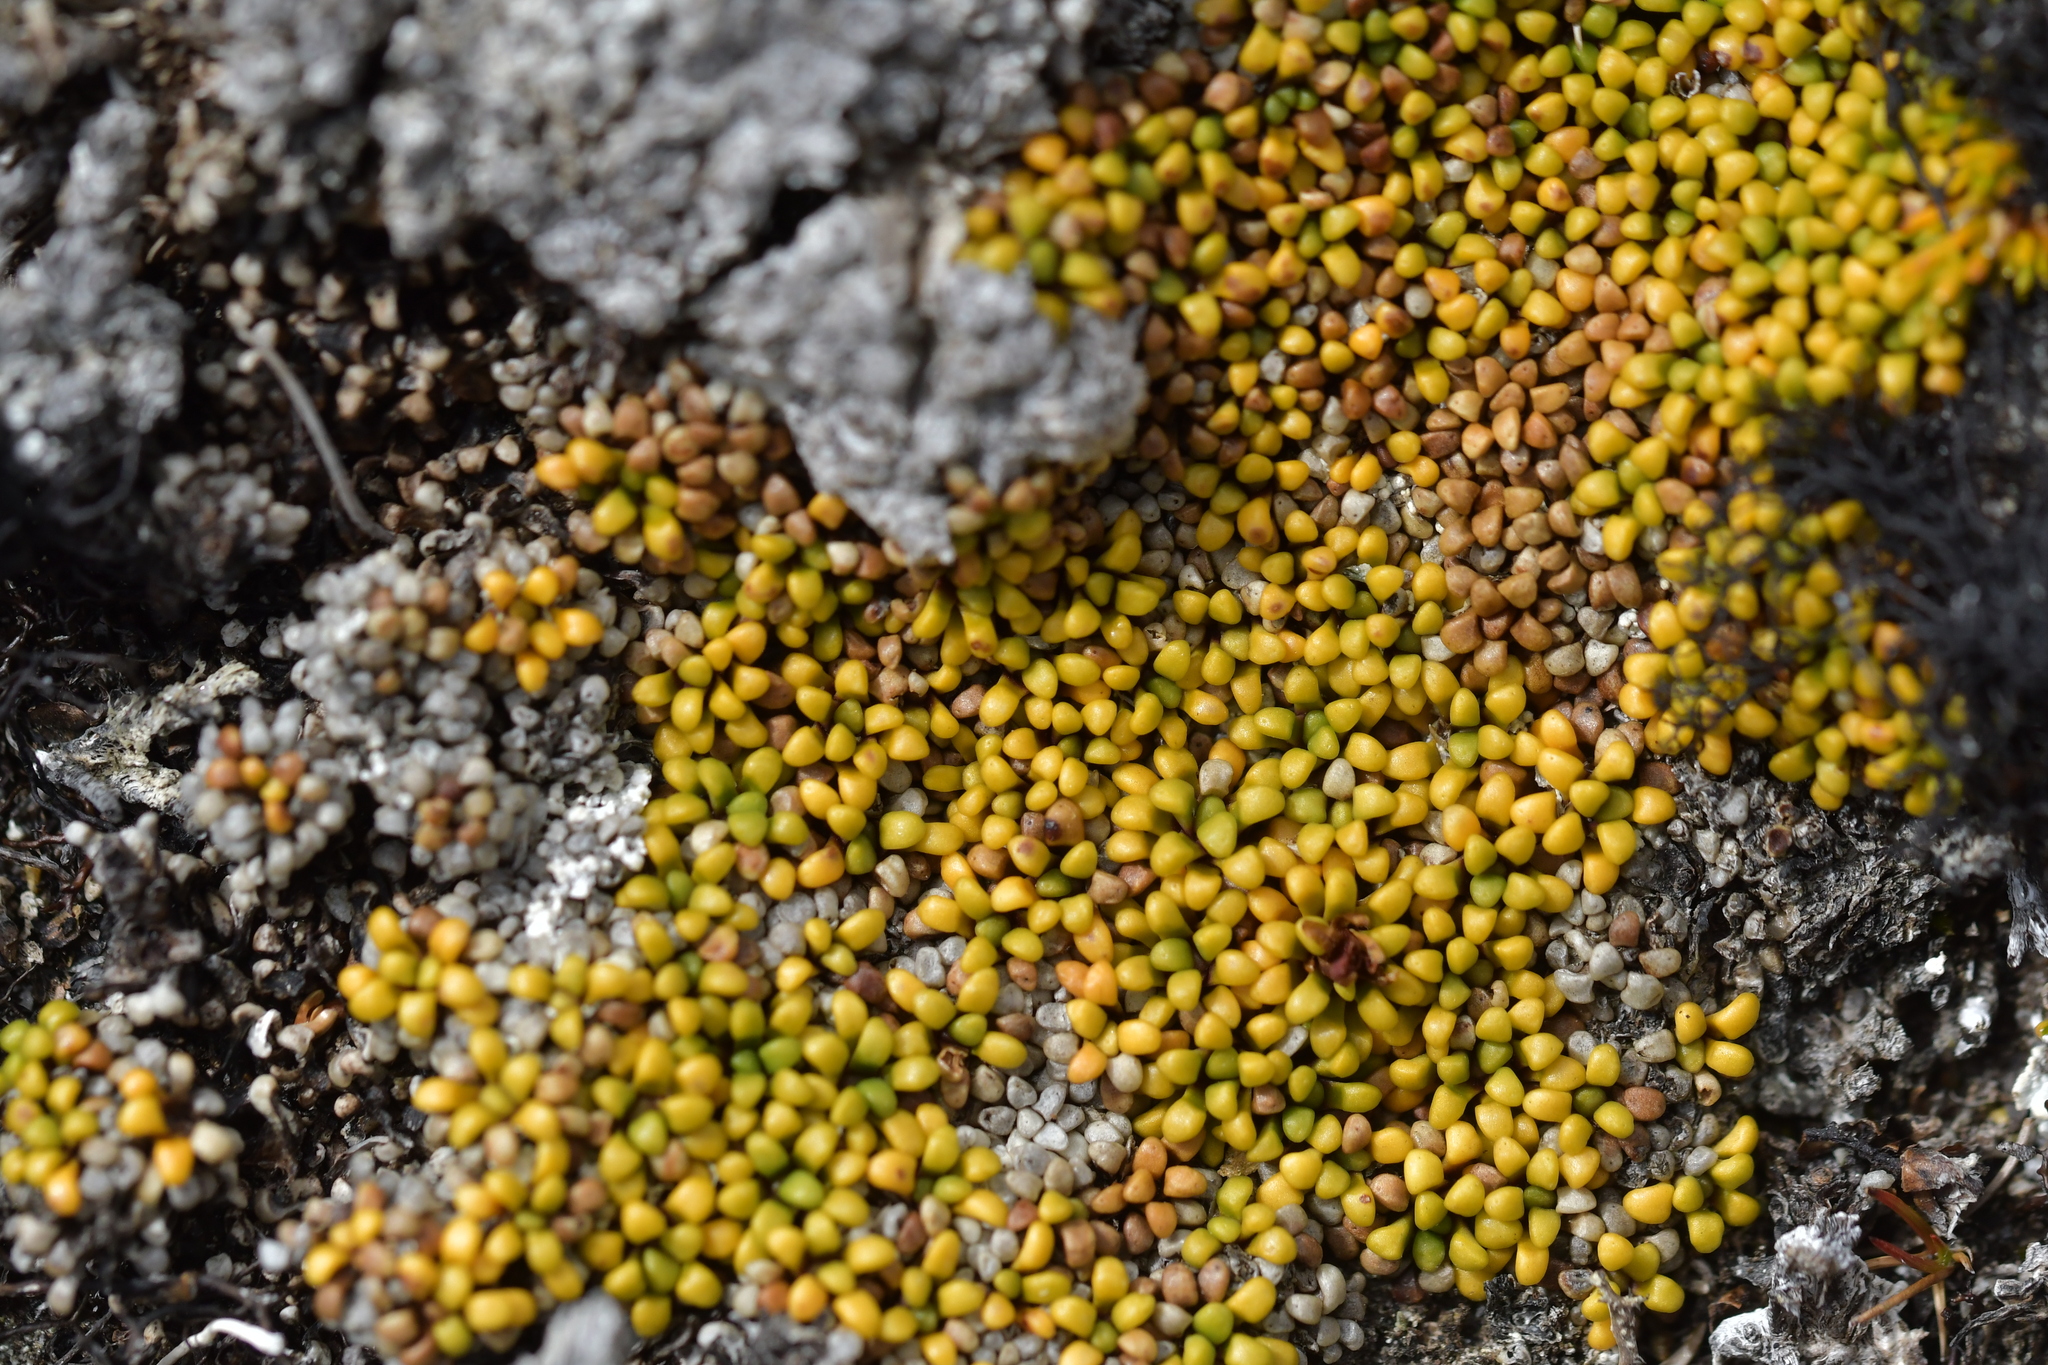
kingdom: Plantae
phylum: Tracheophyta
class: Magnoliopsida
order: Asterales
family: Stylidiaceae
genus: Phyllachne
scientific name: Phyllachne rubra
